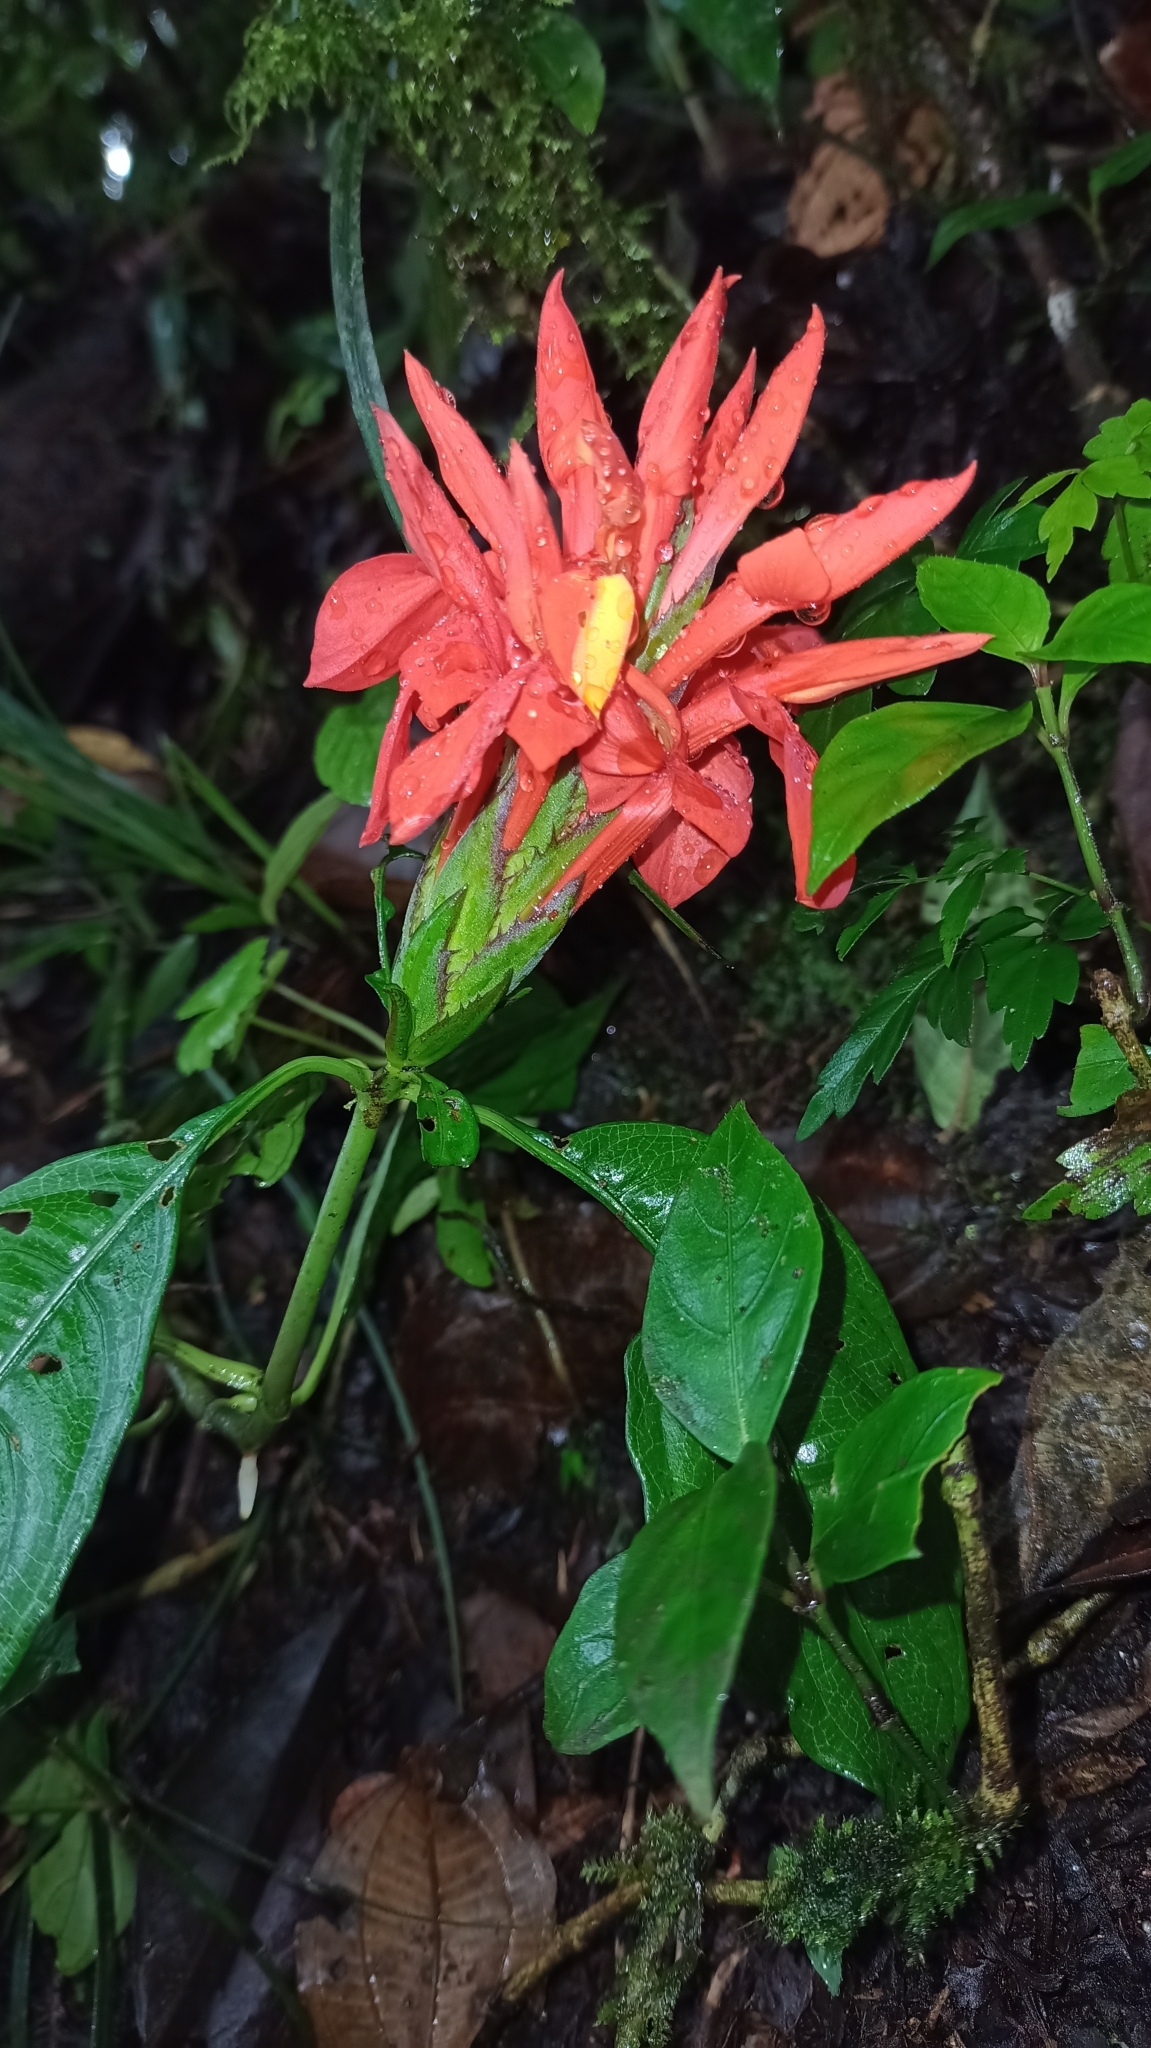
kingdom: Plantae
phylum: Tracheophyta
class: Magnoliopsida
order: Lamiales
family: Acanthaceae
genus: Aphelandra
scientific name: Aphelandra aurantiaca
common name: Fiery spike
